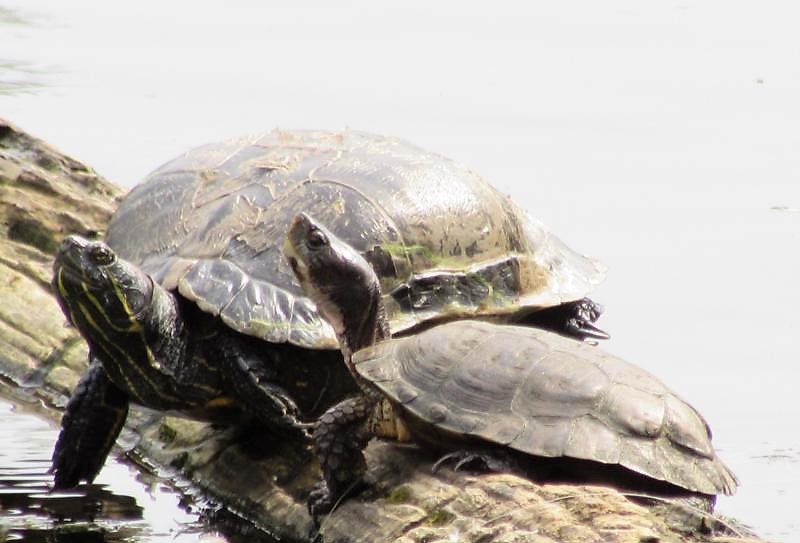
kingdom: Animalia
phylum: Chordata
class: Testudines
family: Emydidae
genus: Actinemys
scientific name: Actinemys marmorata
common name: Western pond turtle
